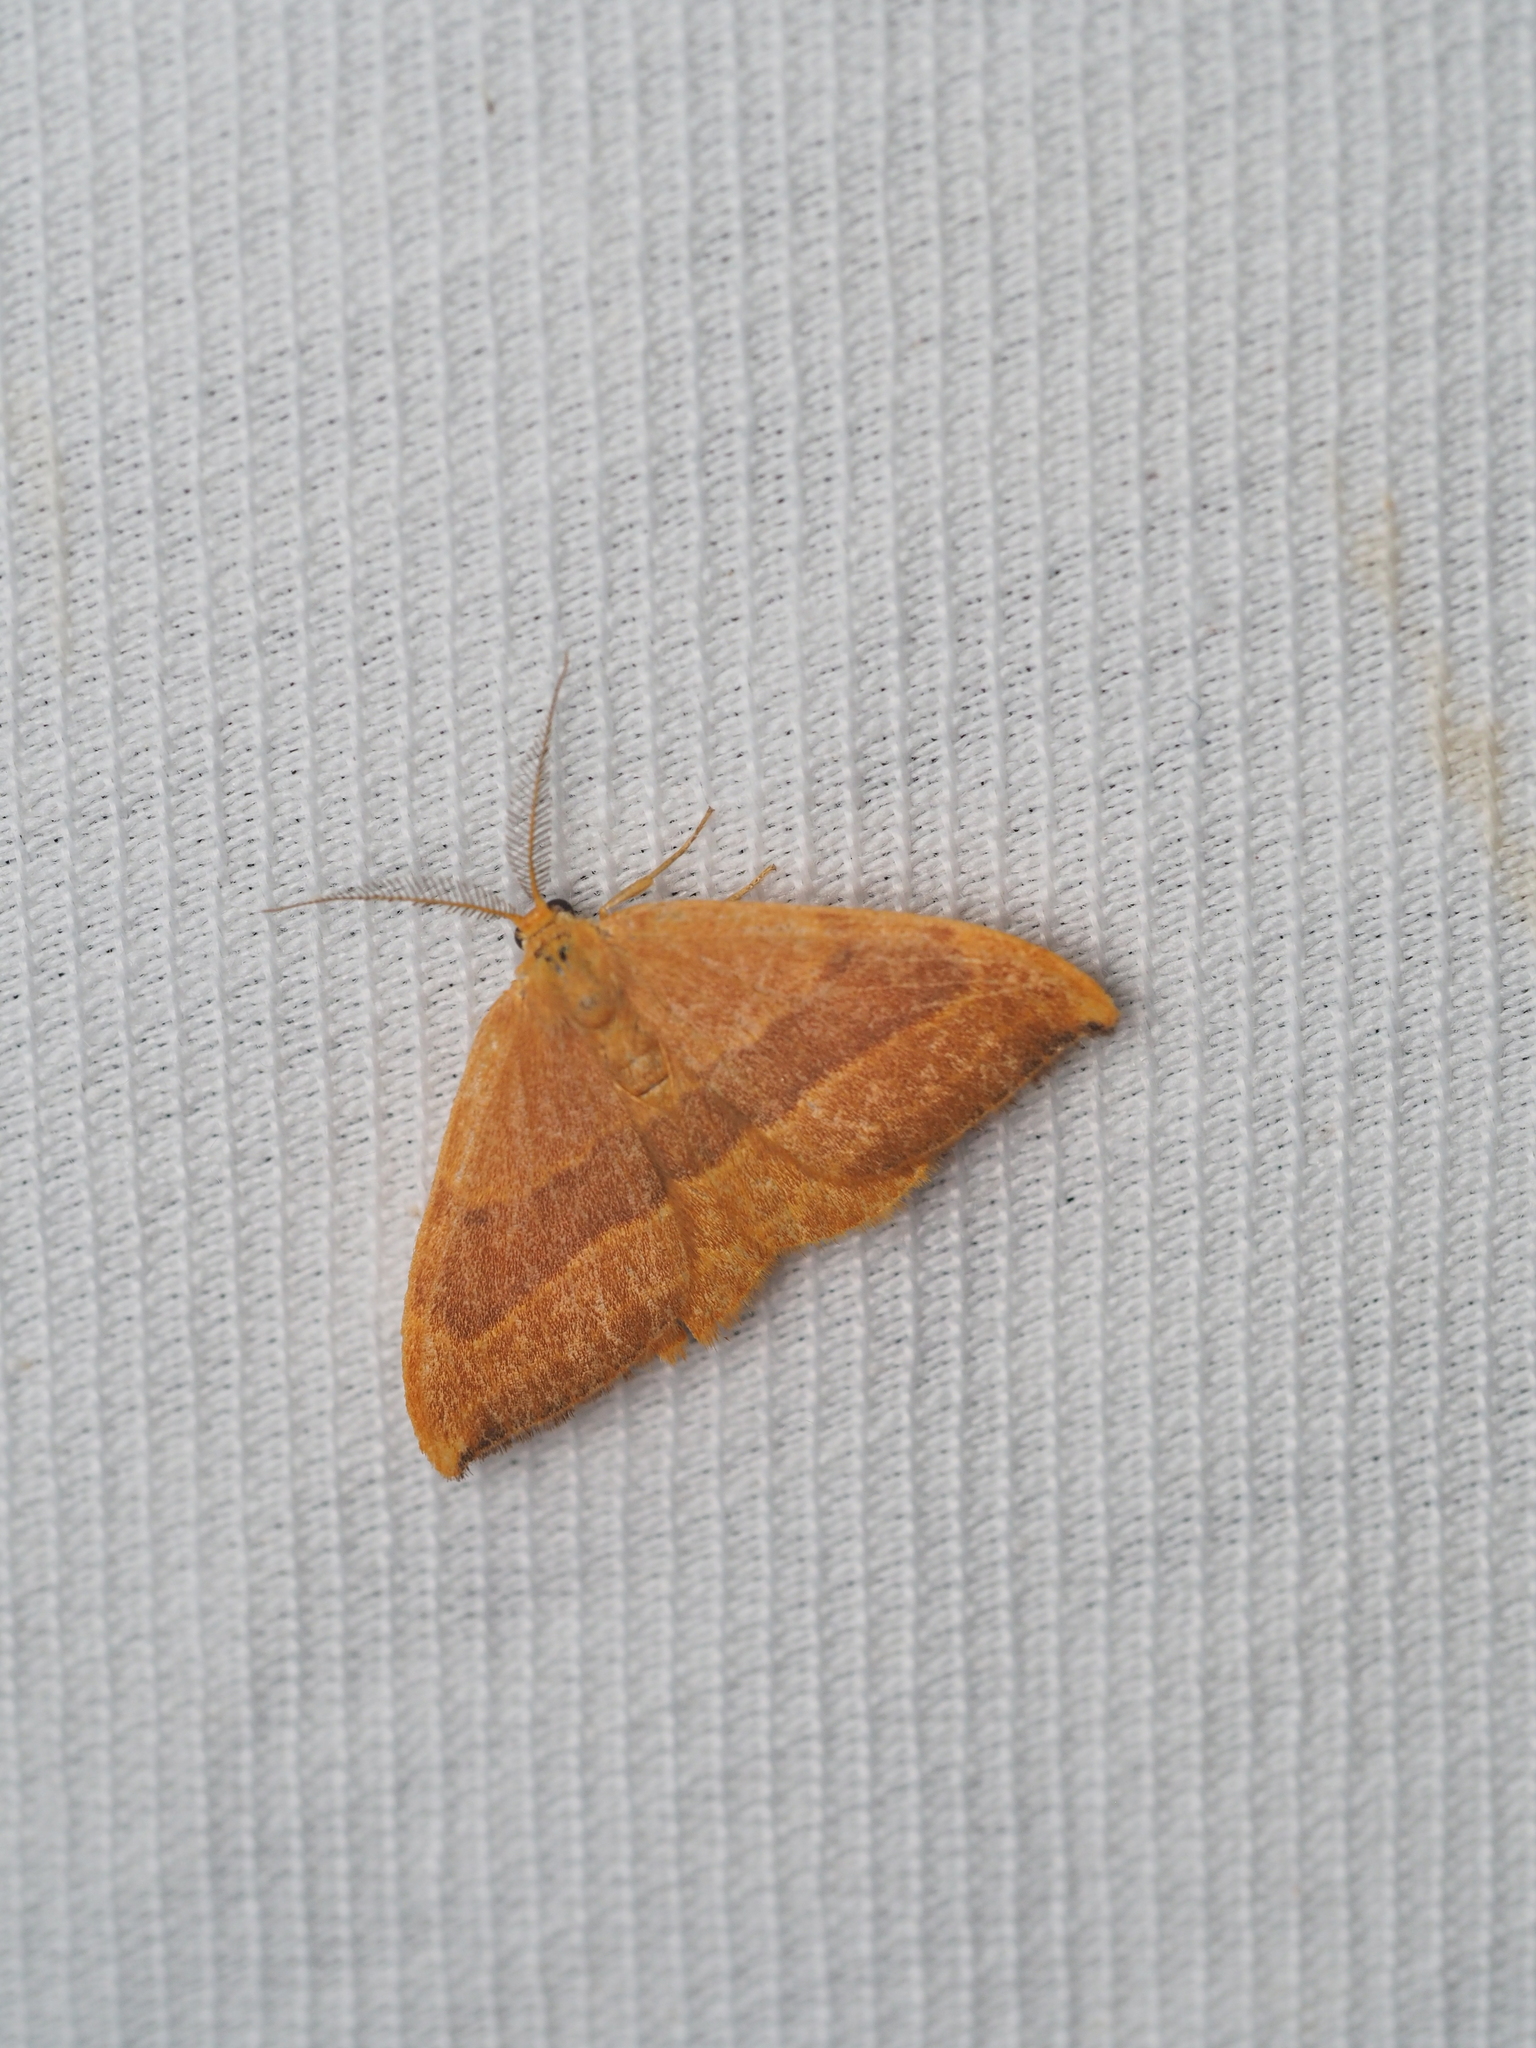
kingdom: Animalia
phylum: Arthropoda
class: Insecta
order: Lepidoptera
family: Drepanidae
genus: Watsonalla
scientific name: Watsonalla cultraria
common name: Barred hook-tip
